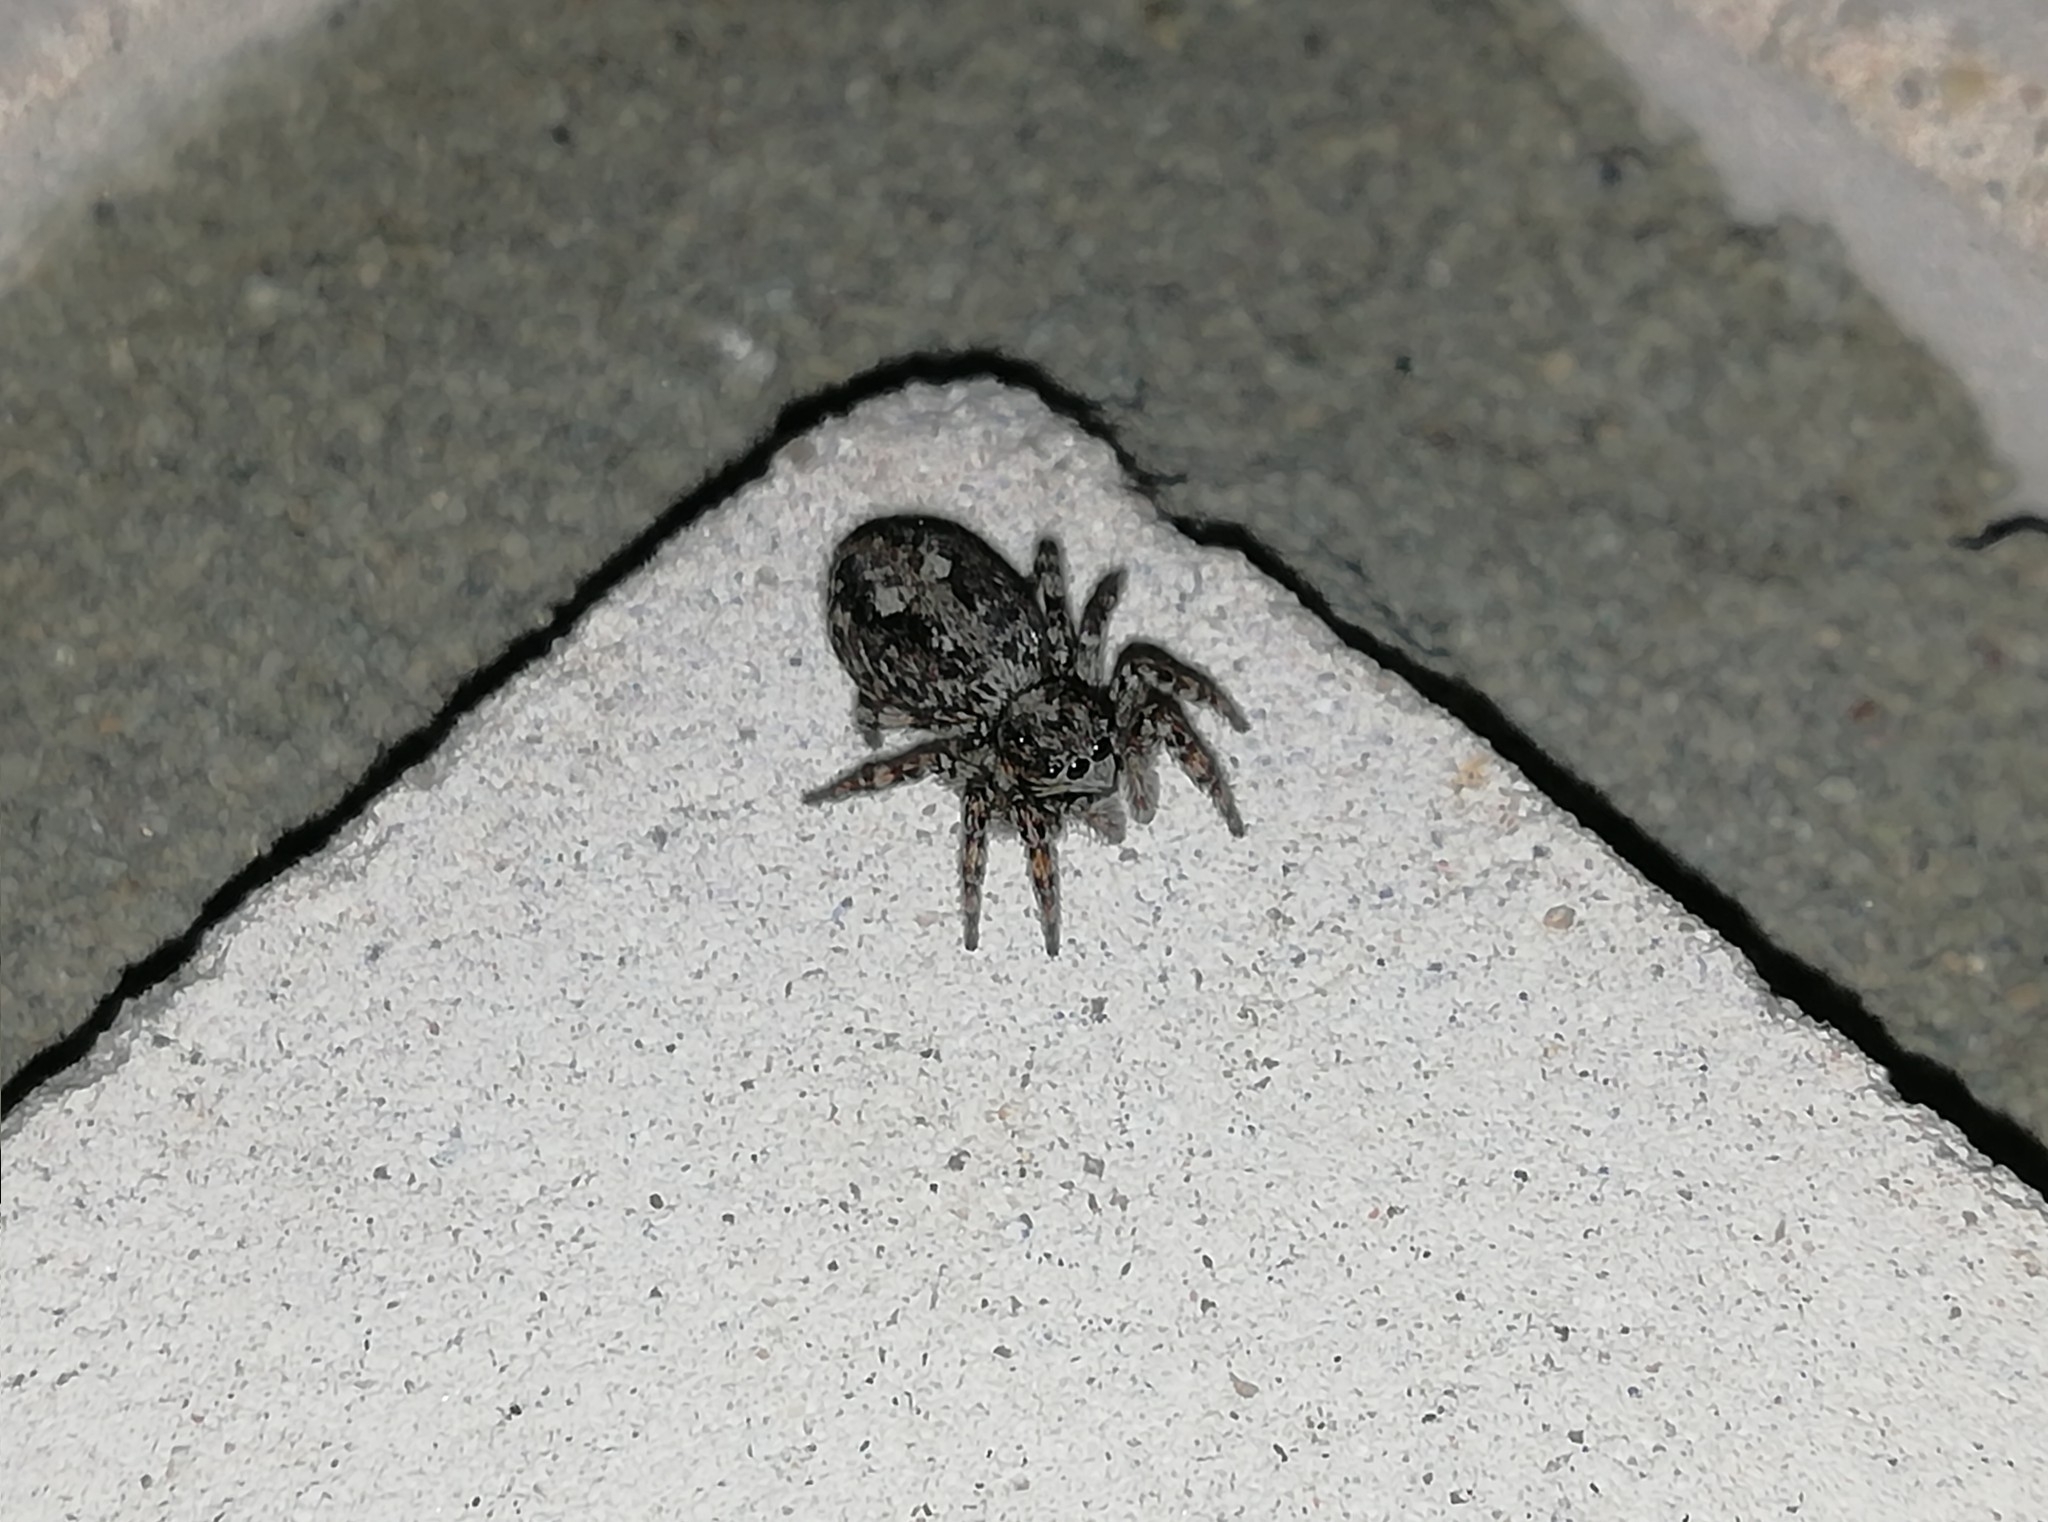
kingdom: Animalia
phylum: Arthropoda
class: Arachnida
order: Araneae
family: Salticidae
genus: Attulus
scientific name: Attulus terebratus
